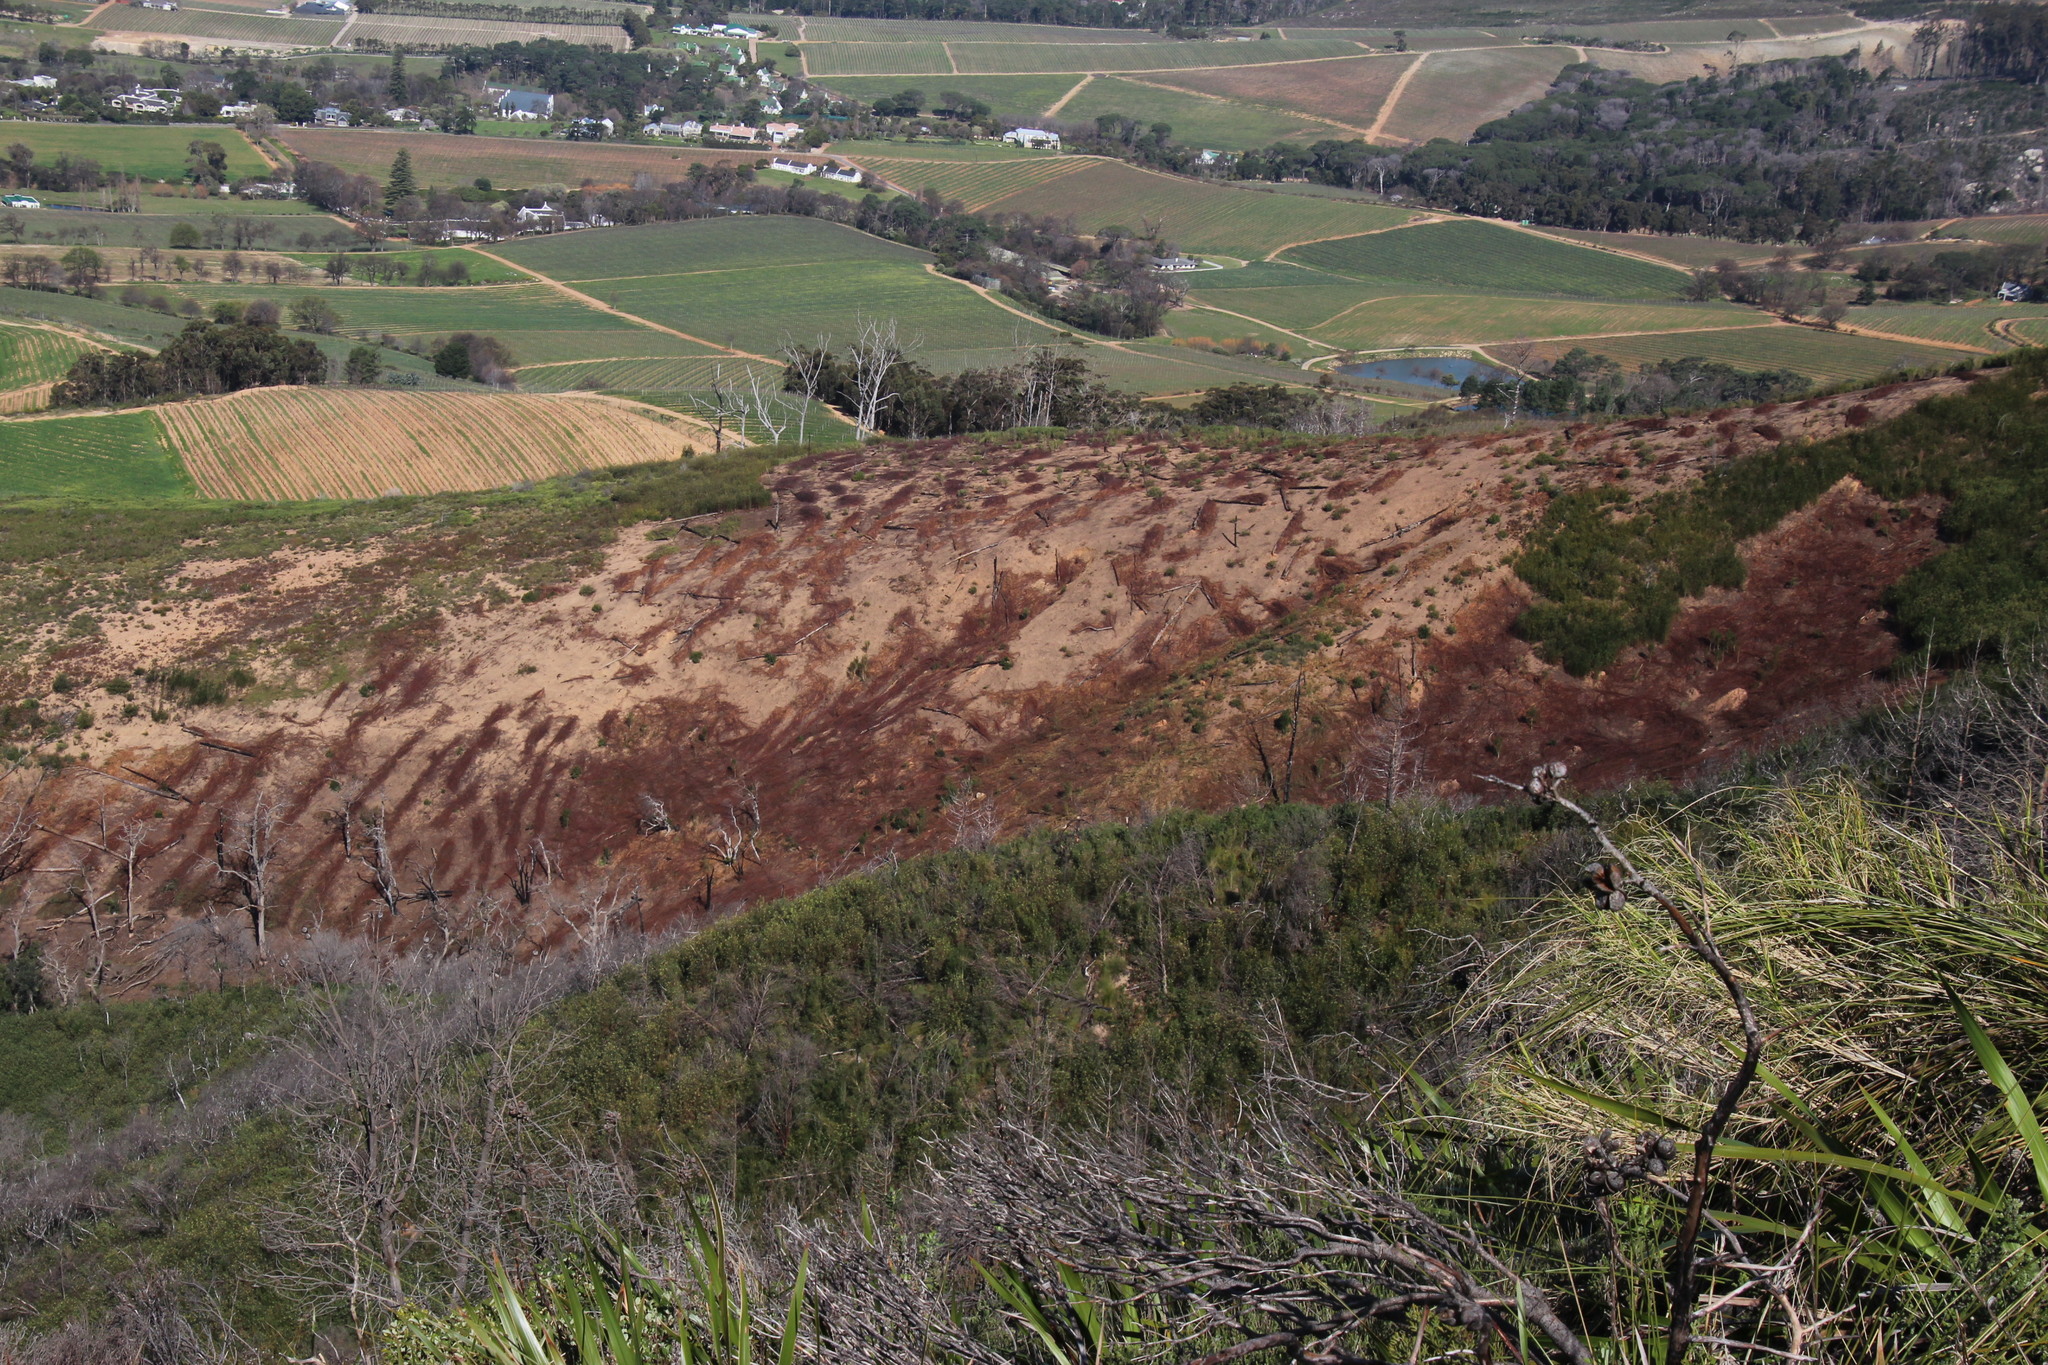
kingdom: Plantae
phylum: Tracheophyta
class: Magnoliopsida
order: Fabales
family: Fabaceae
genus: Paraserianthes
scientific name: Paraserianthes lophantha
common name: Plume albizia
